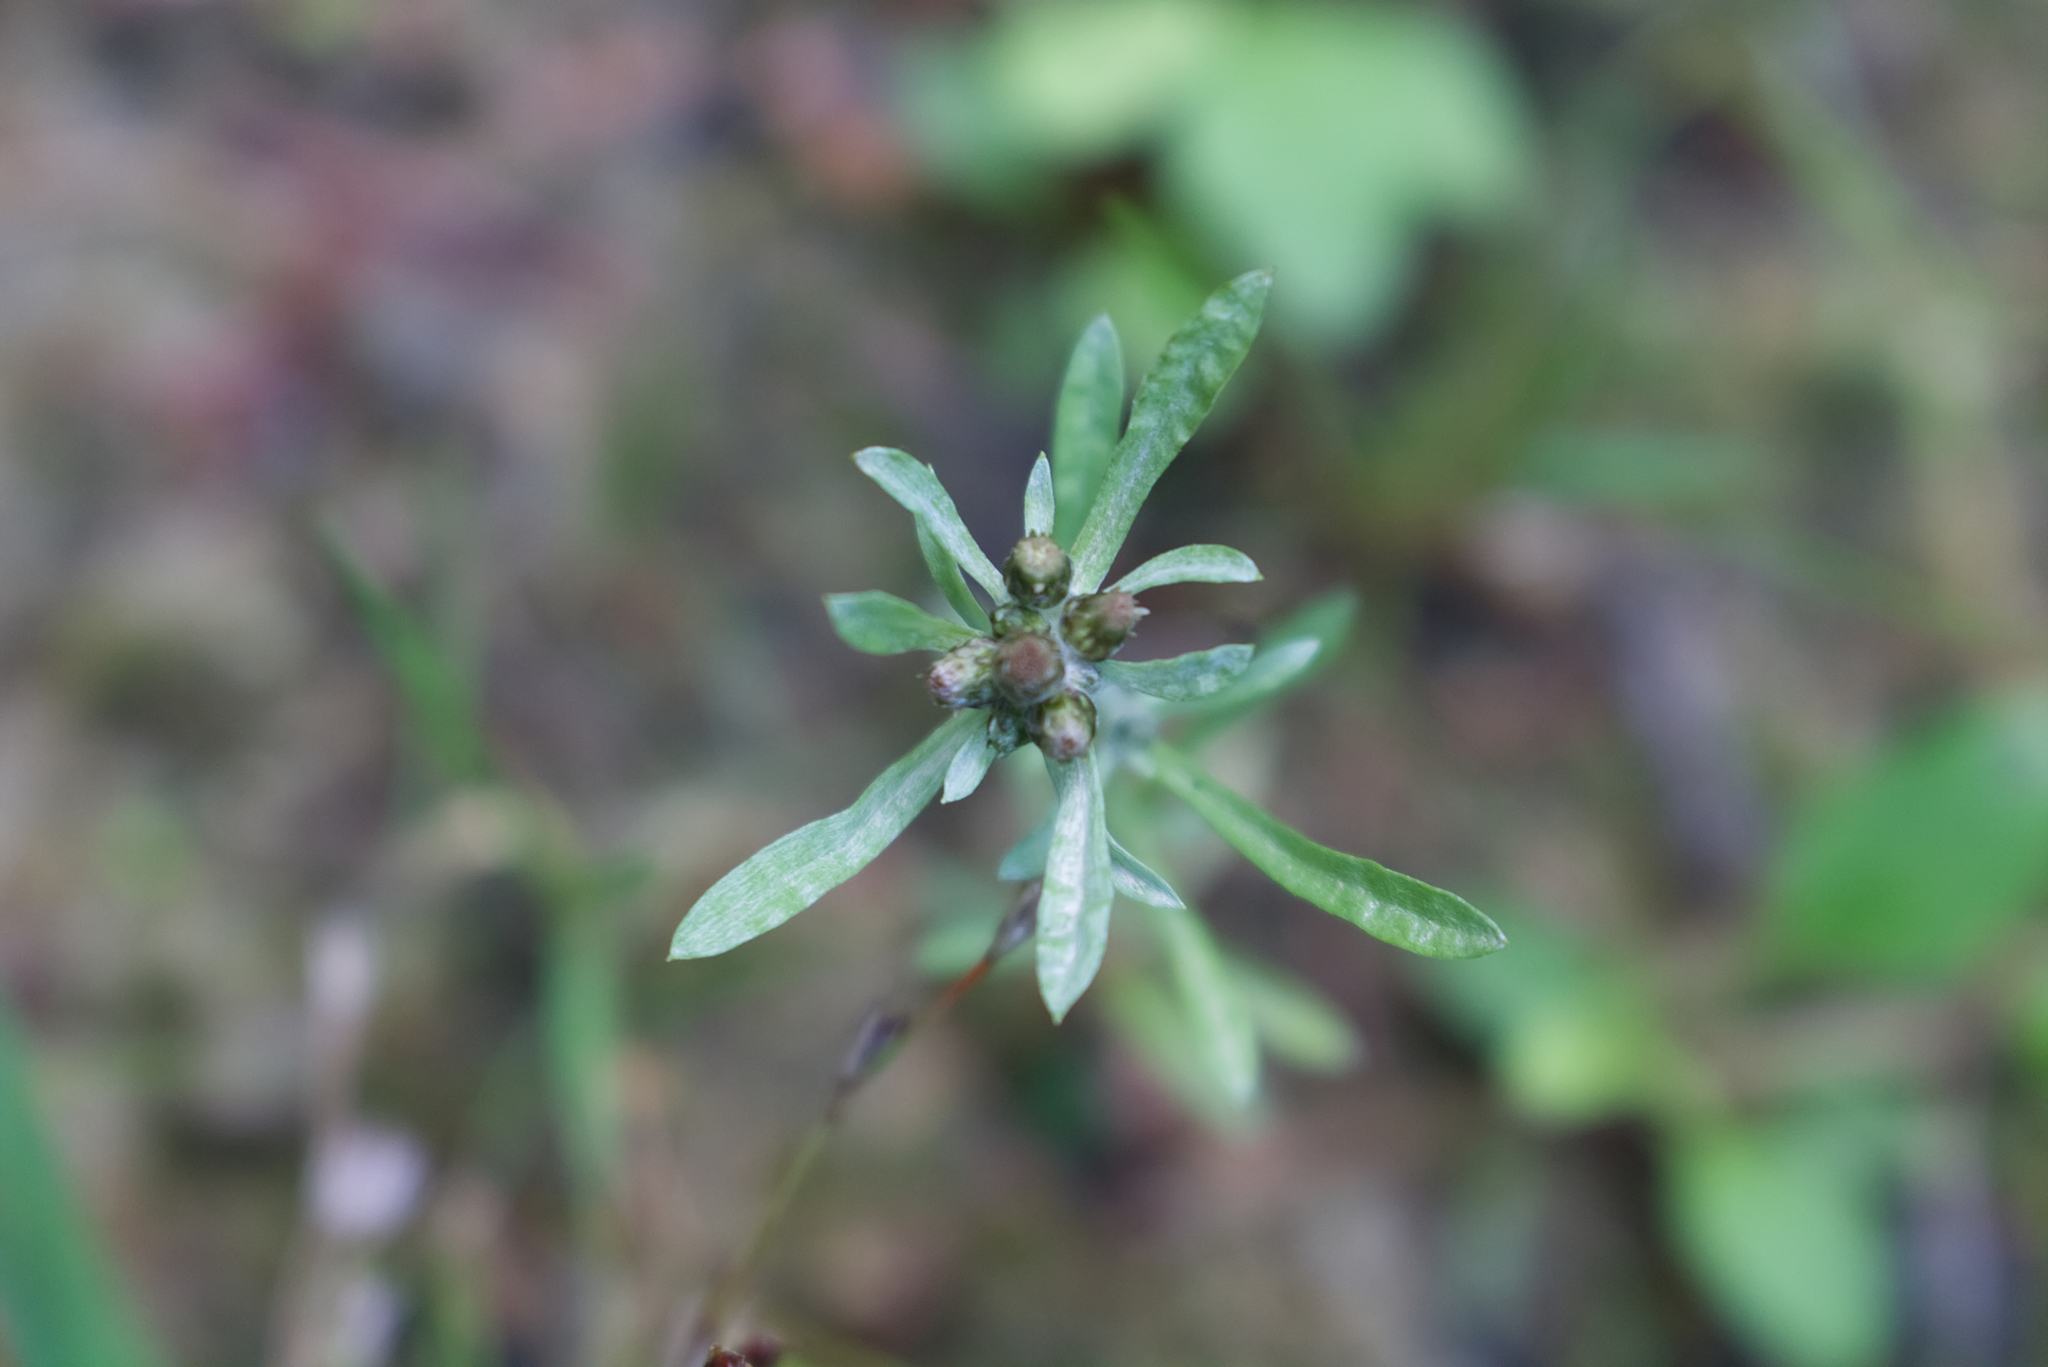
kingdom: Plantae
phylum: Tracheophyta
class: Magnoliopsida
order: Asterales
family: Asteraceae
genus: Gnaphalium
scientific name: Gnaphalium uliginosum
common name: Marsh cudweed
